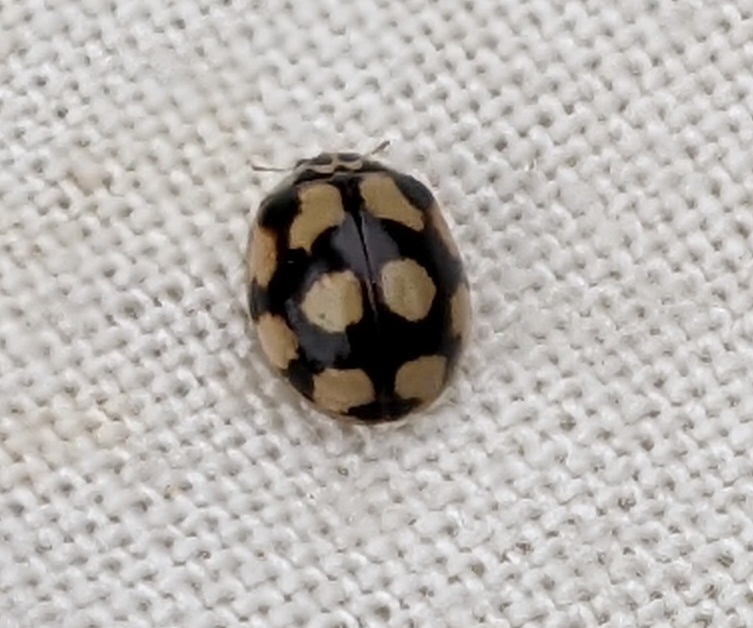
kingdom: Animalia
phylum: Arthropoda
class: Insecta
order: Coleoptera
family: Coccinellidae
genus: Adalia
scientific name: Adalia decempunctata
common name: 10-spot ladybird
